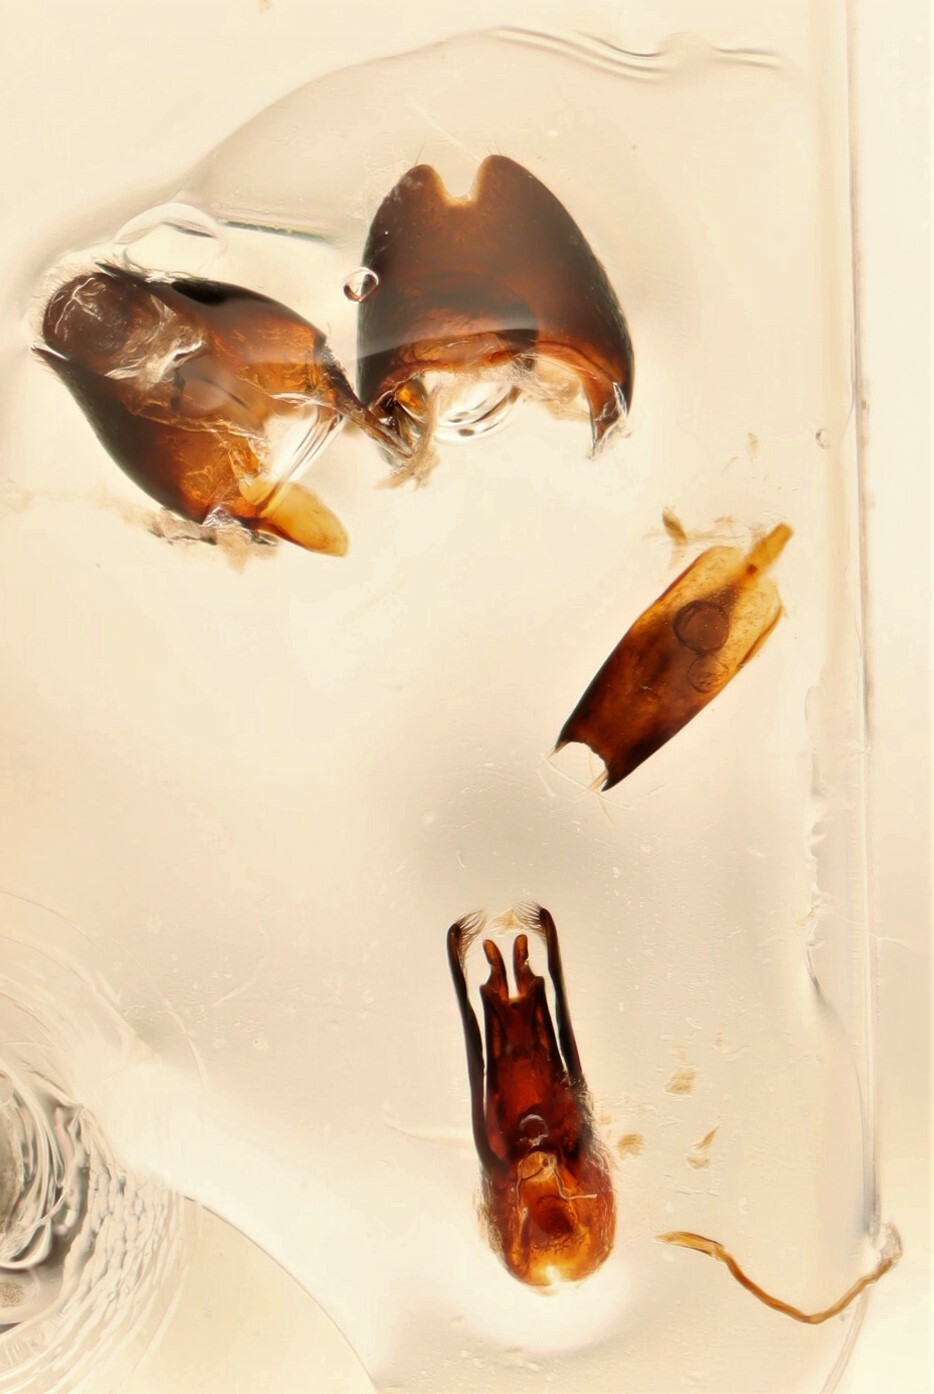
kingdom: Animalia
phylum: Arthropoda
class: Insecta
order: Coleoptera
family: Staphylinidae
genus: Stenus
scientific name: Stenus juno
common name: Rove beetle
